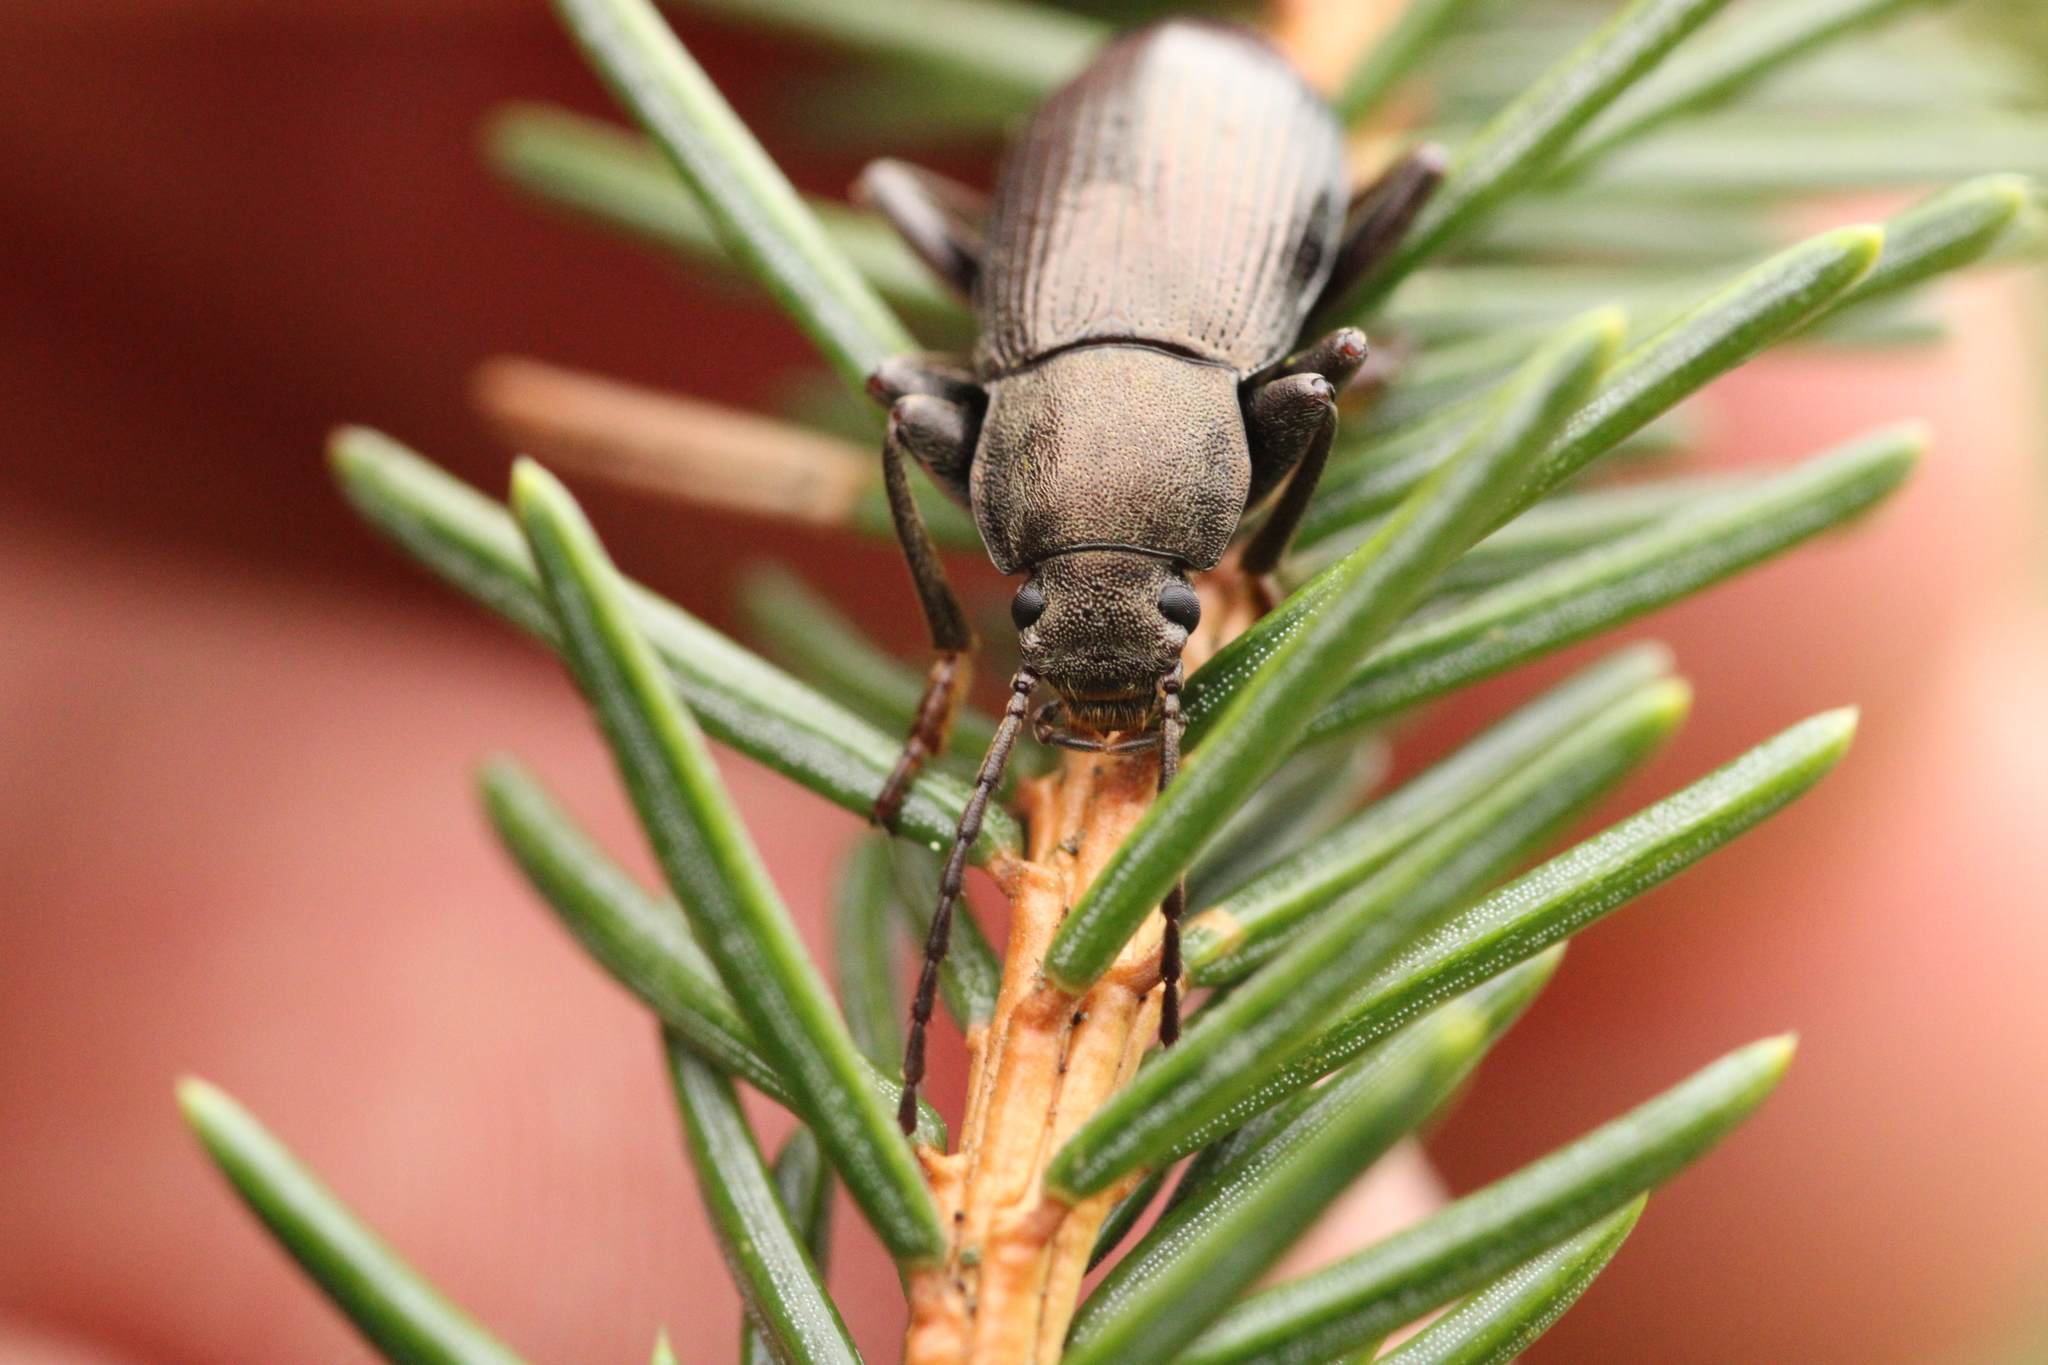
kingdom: Animalia
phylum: Arthropoda
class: Insecta
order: Coleoptera
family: Tenebrionidae
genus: Stenomax
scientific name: Stenomax aeneus
